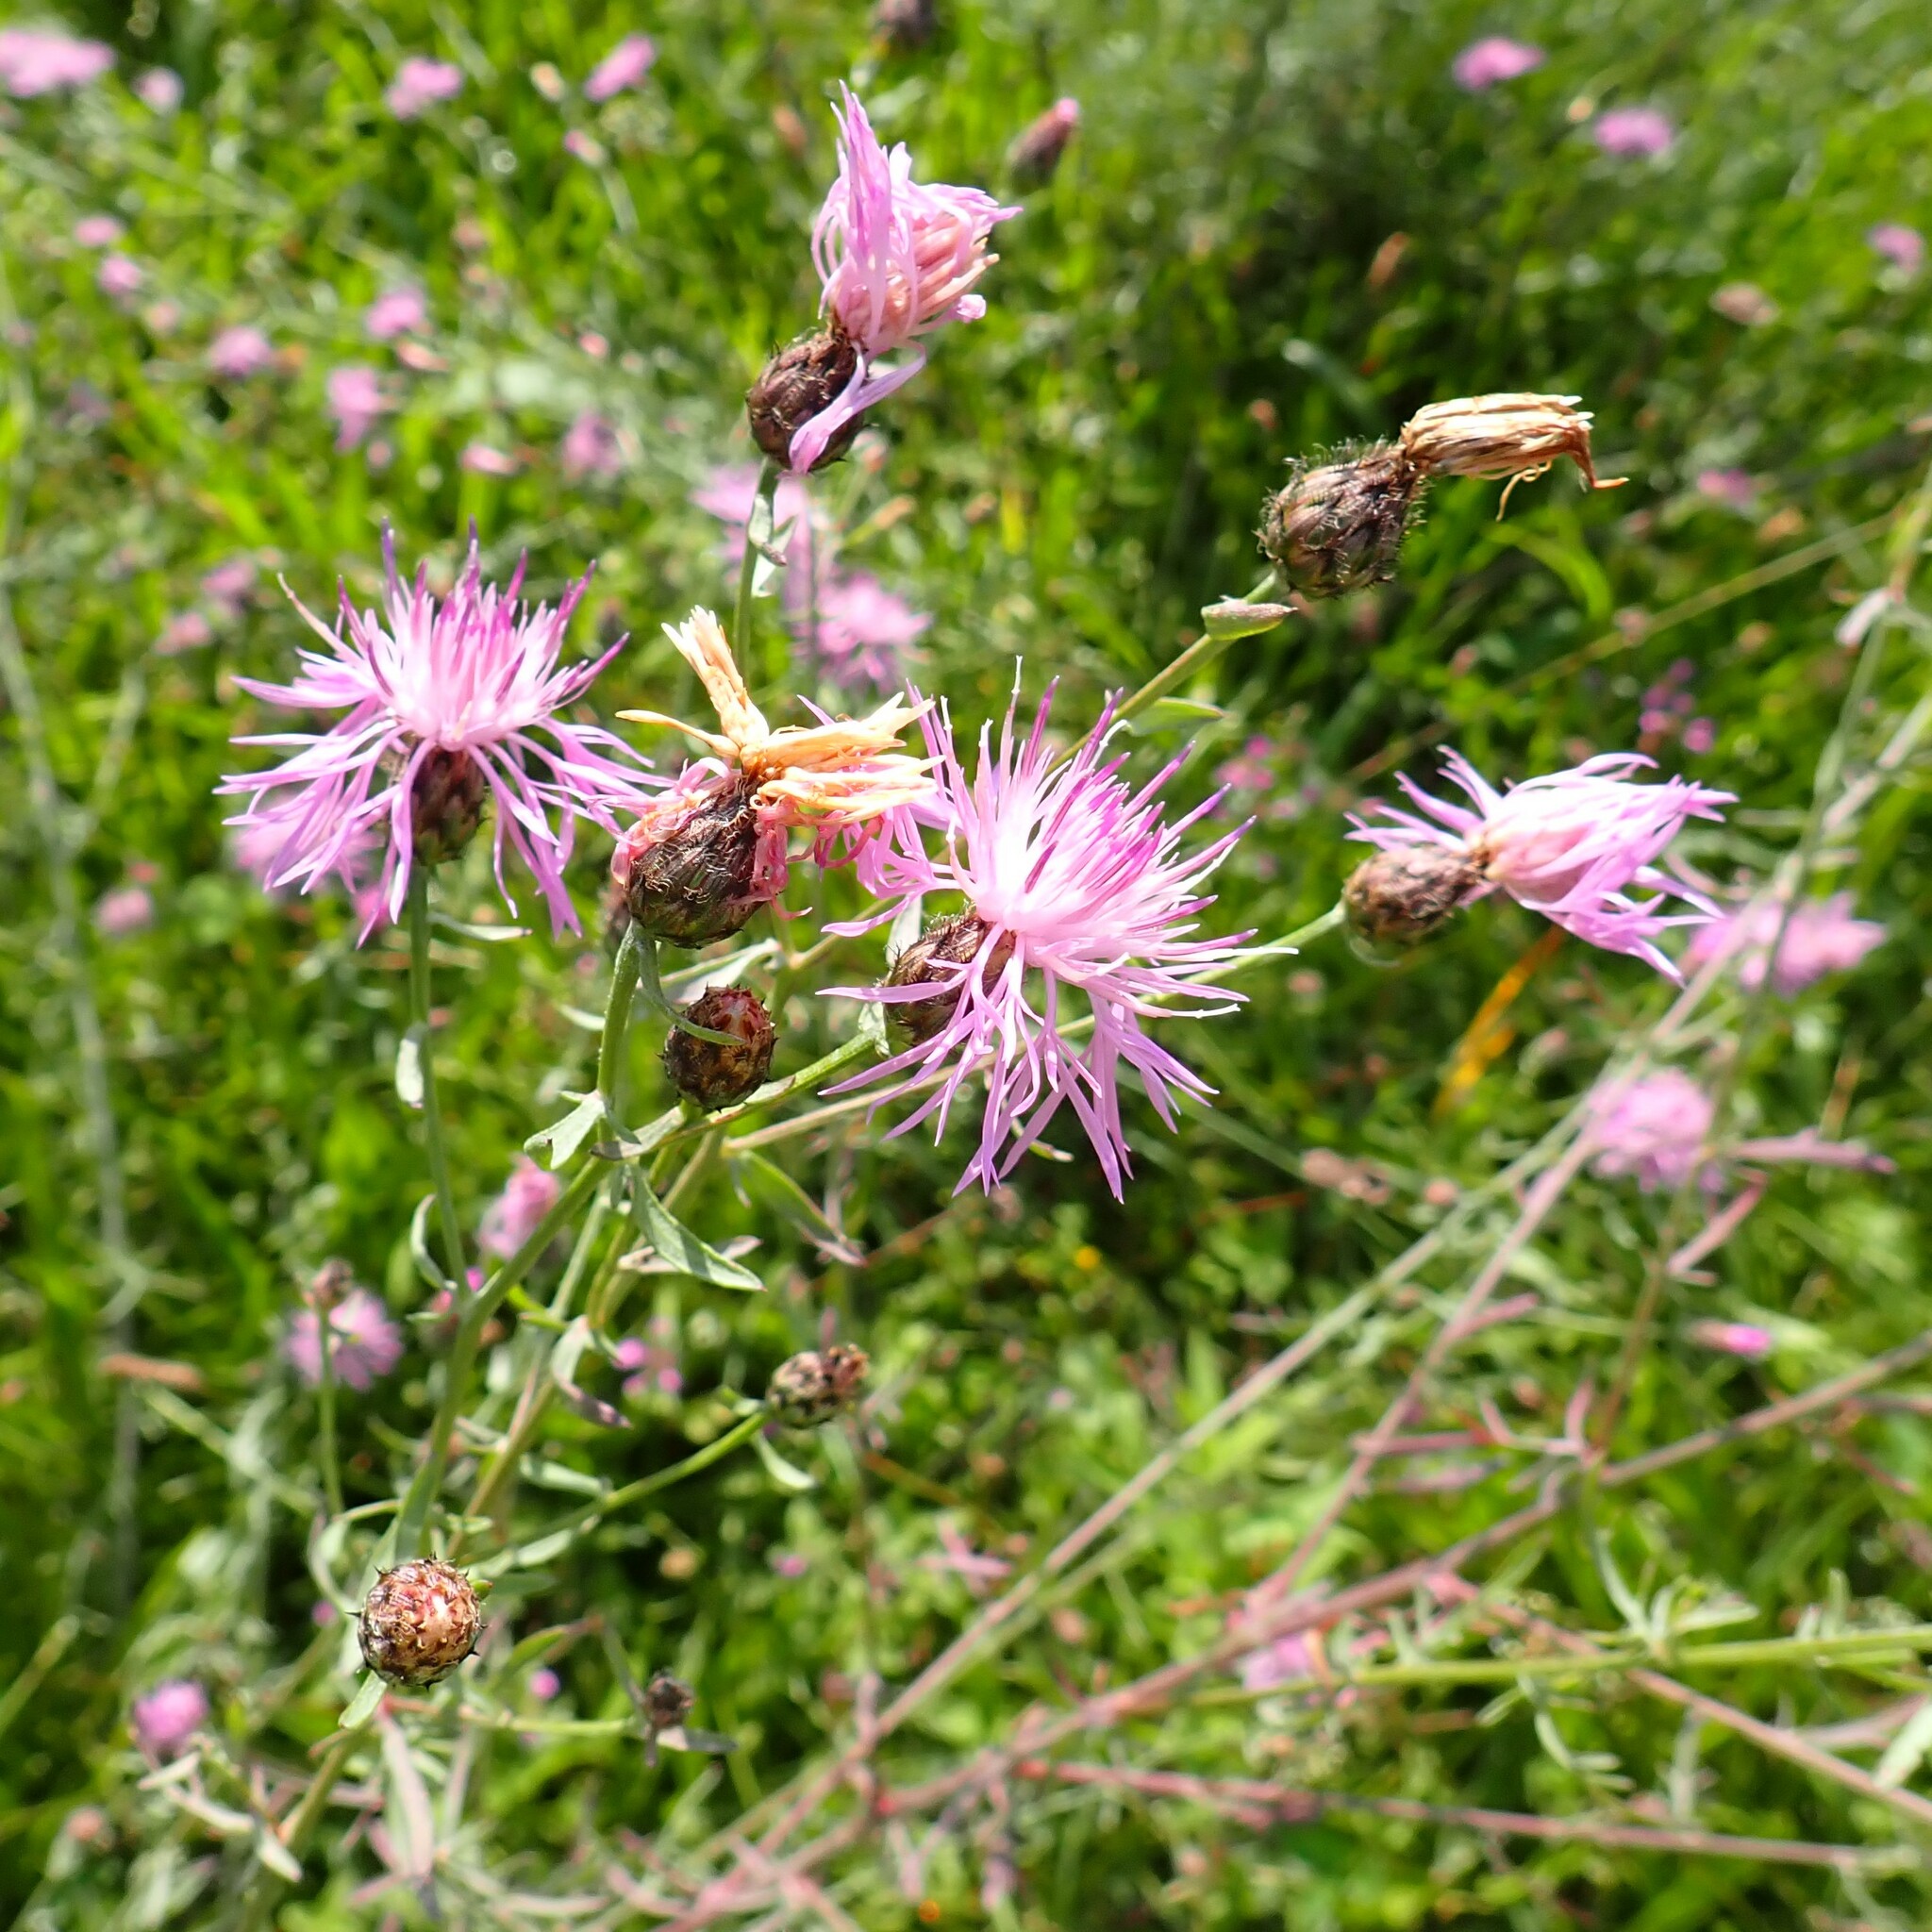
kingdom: Plantae
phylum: Tracheophyta
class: Magnoliopsida
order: Asterales
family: Asteraceae
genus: Centaurea
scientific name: Centaurea stoebe
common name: Spotted knapweed
